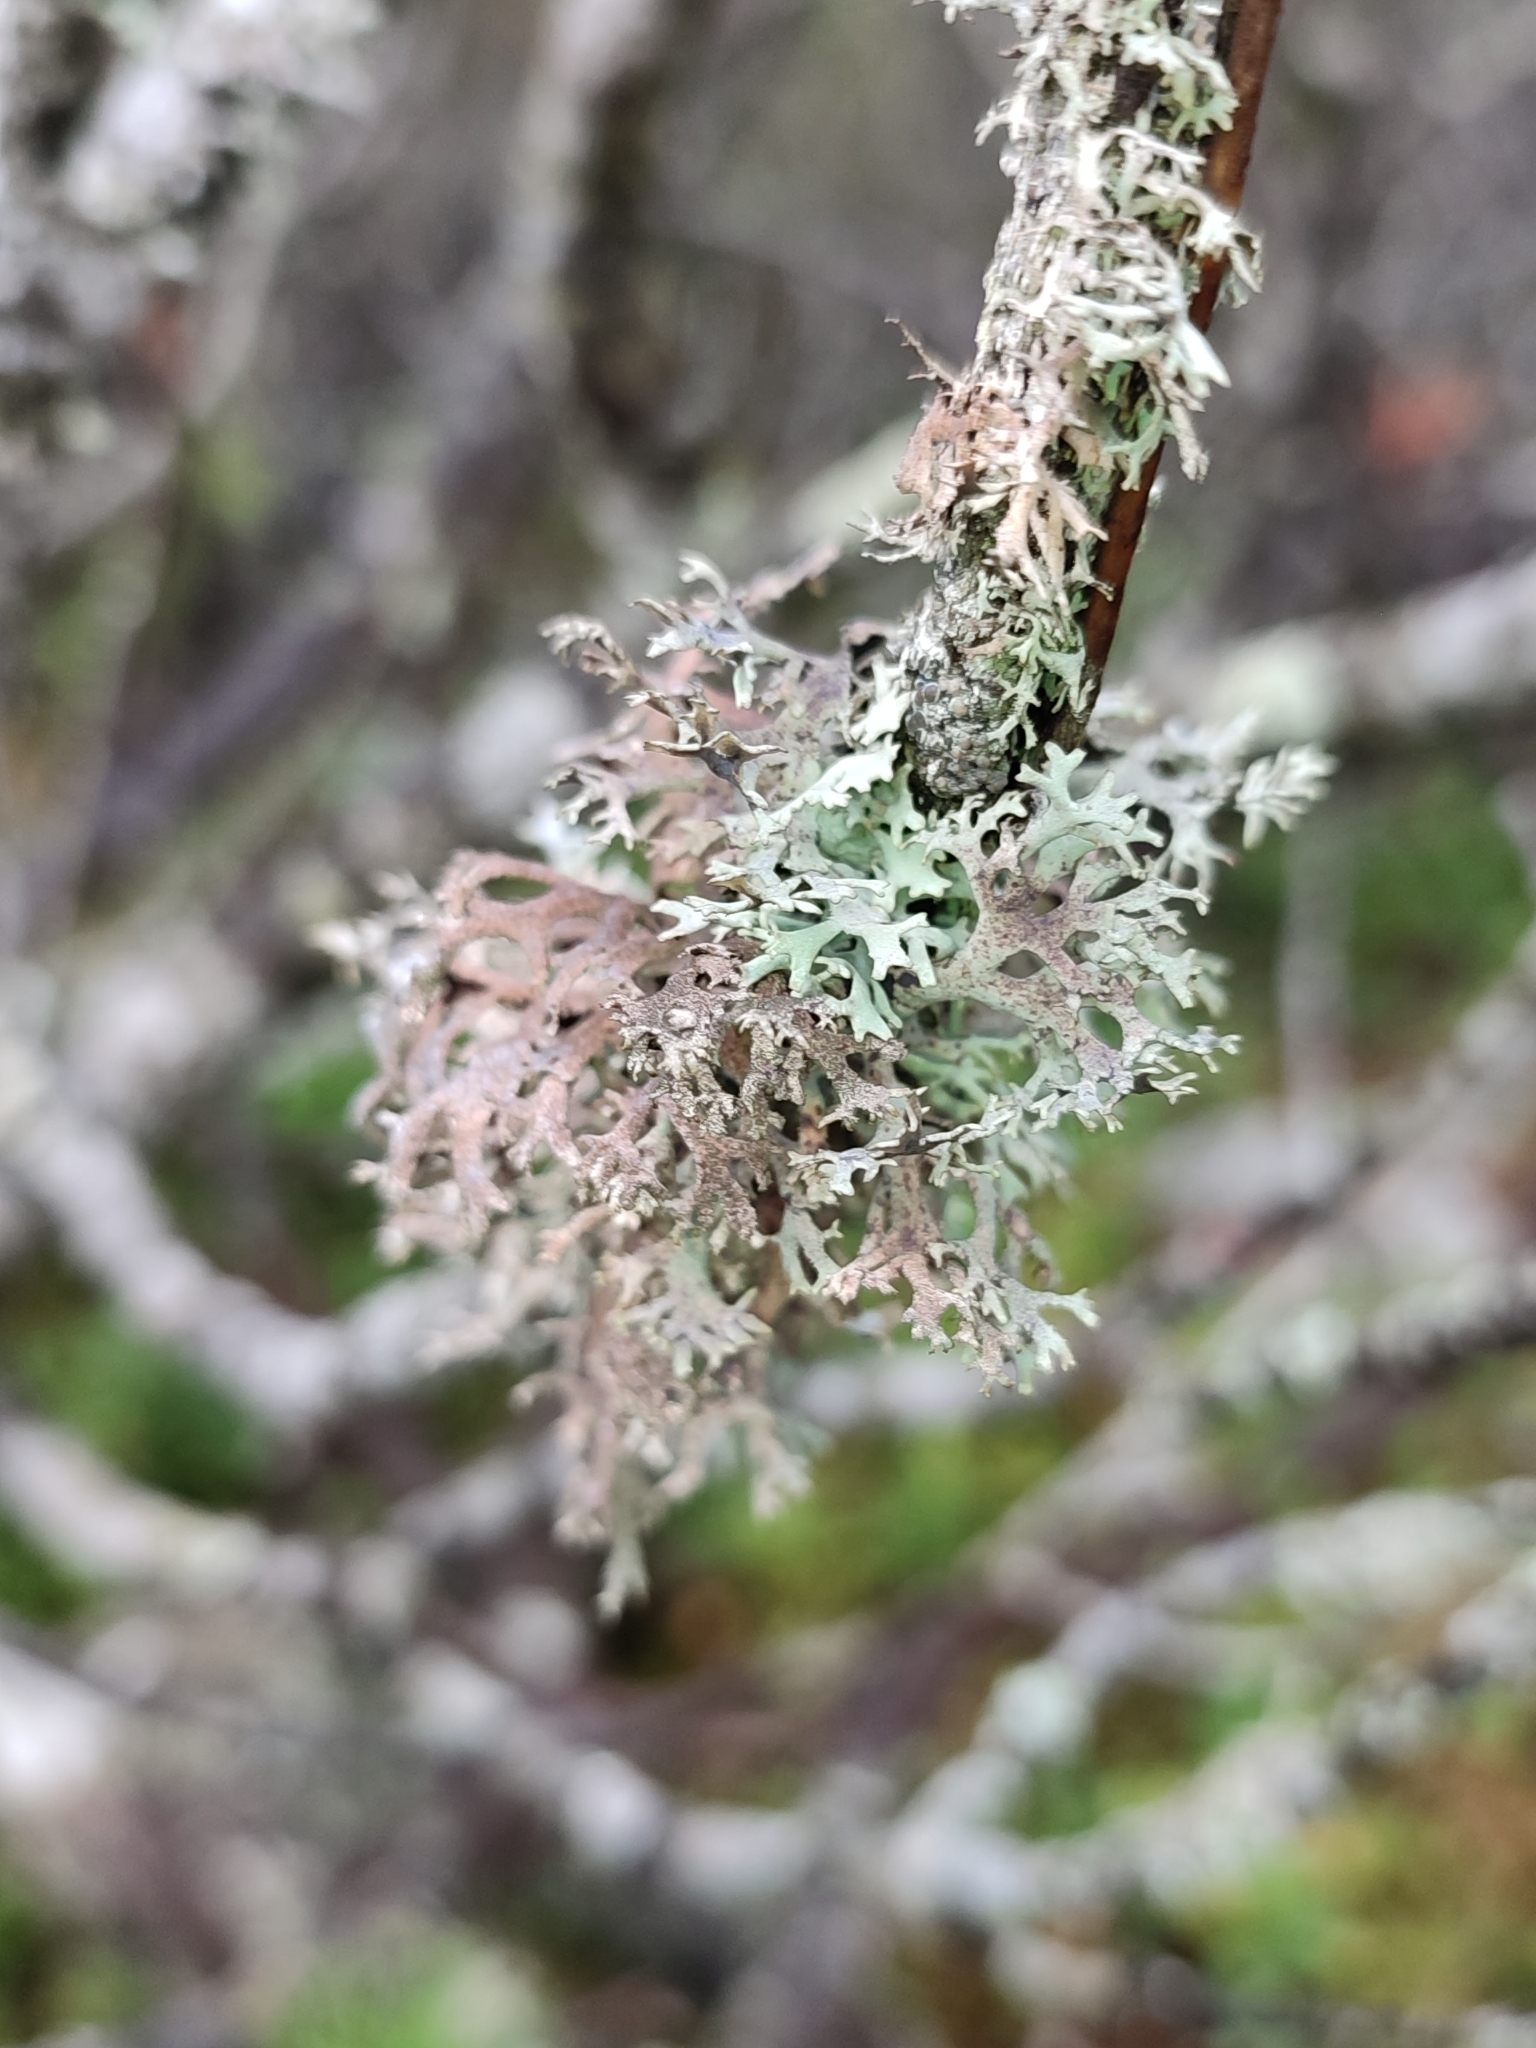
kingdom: Fungi
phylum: Ascomycota
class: Lecanoromycetes
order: Lecanorales
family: Parmeliaceae
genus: Pseudevernia
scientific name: Pseudevernia furfuracea
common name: Tree moss
